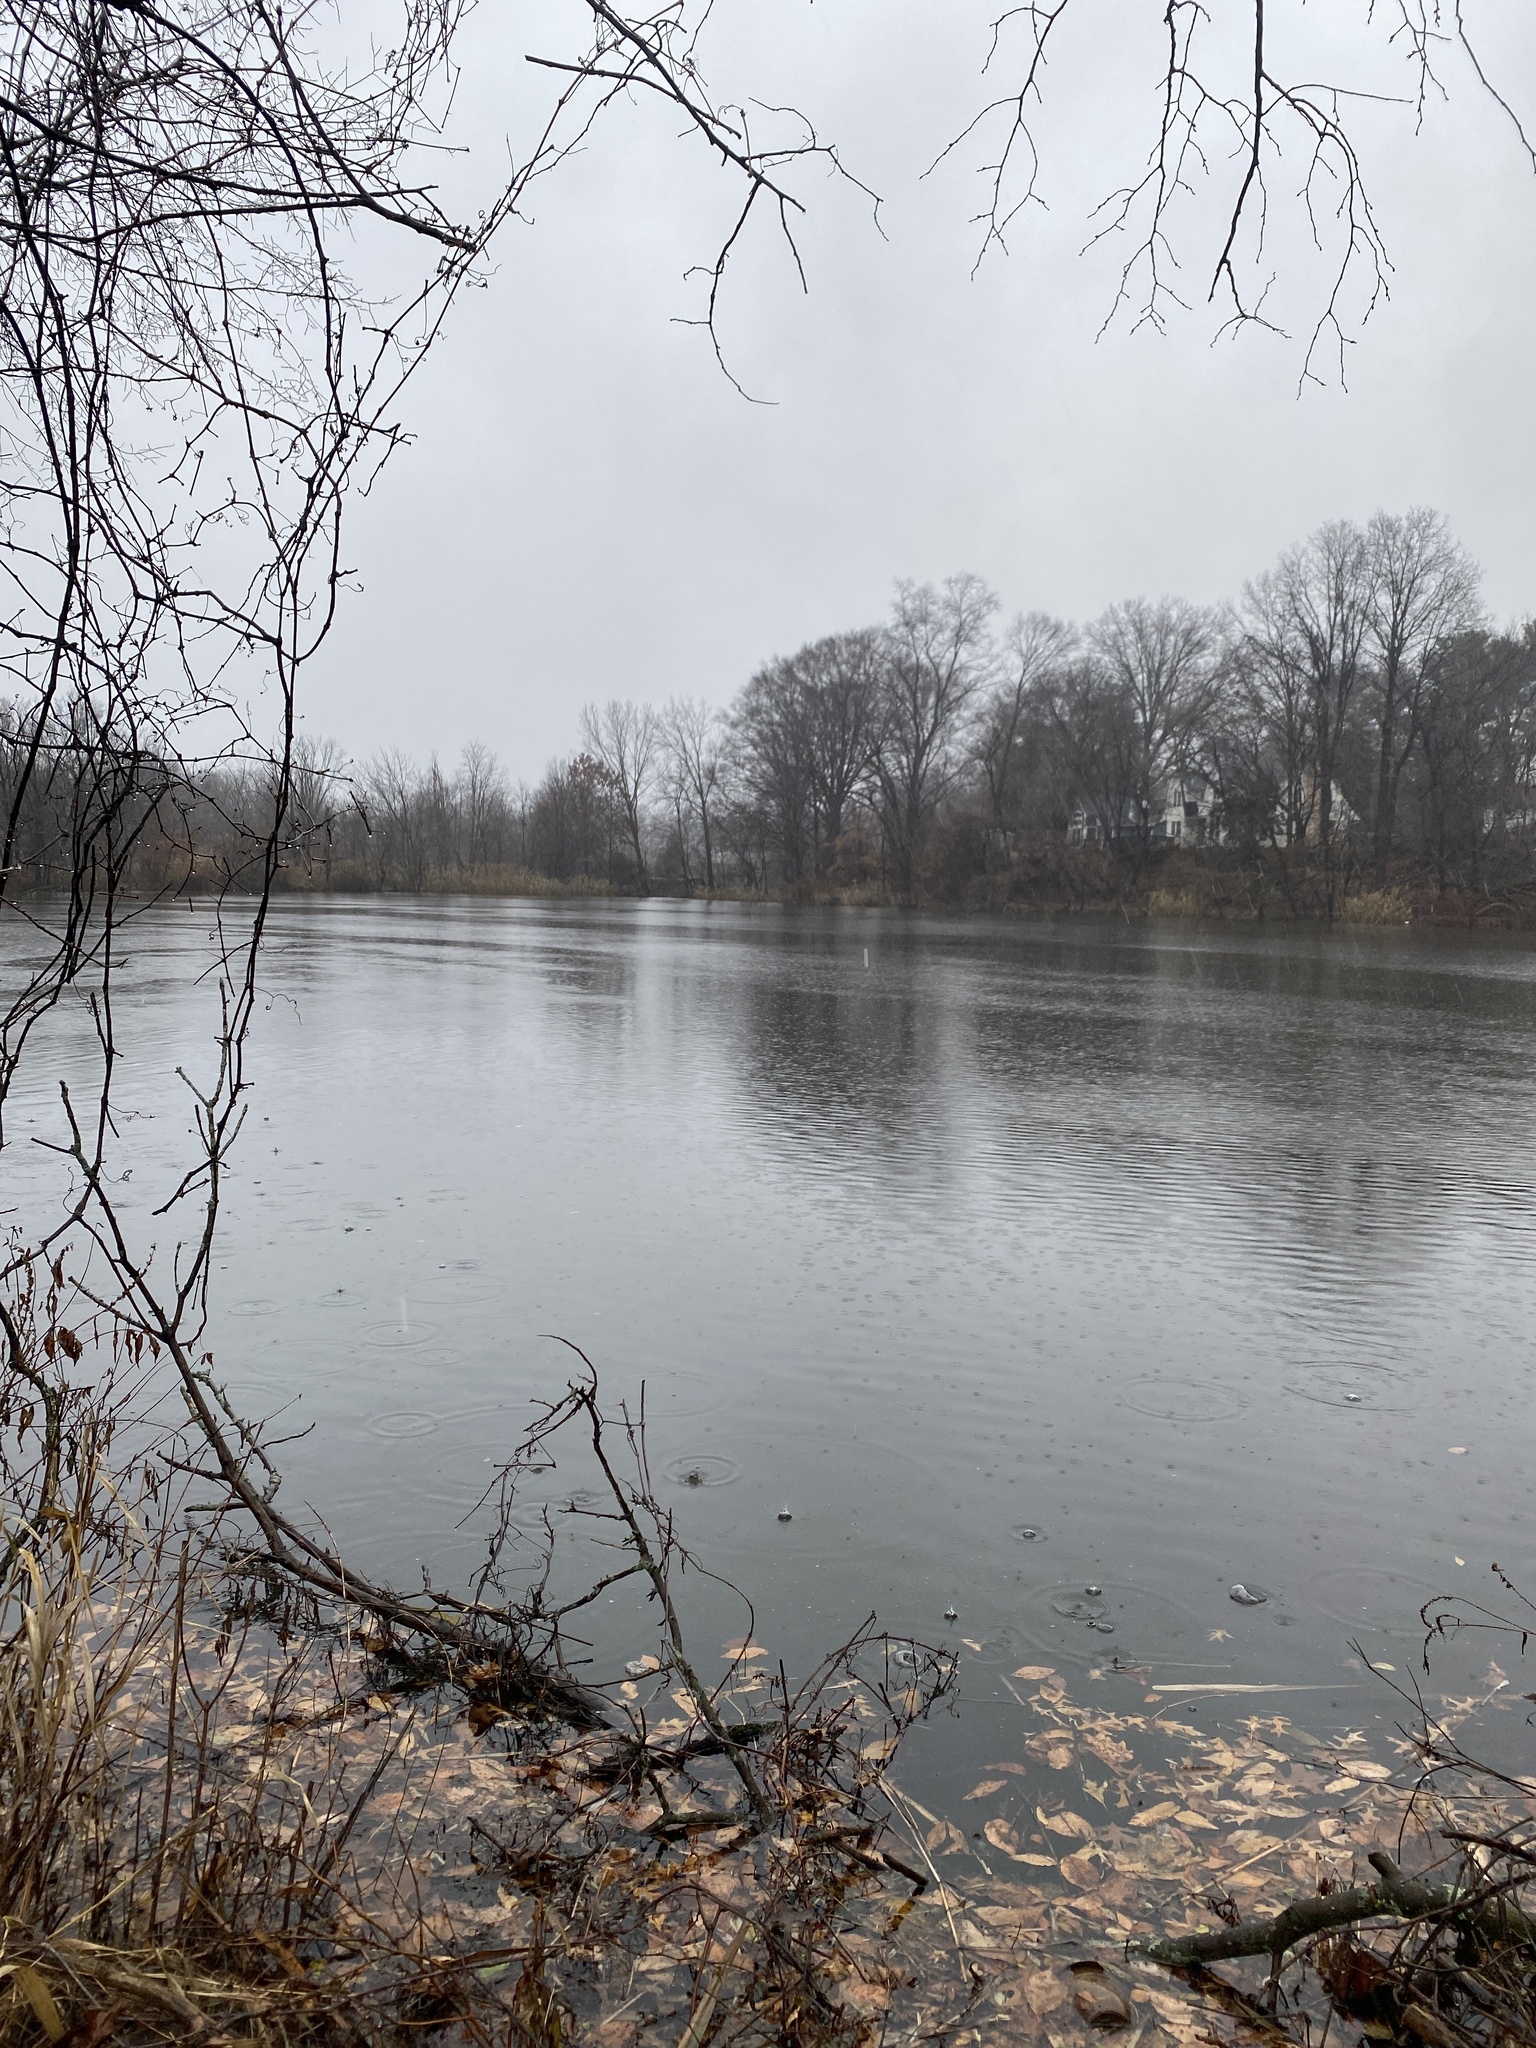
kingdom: Plantae
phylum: Tracheophyta
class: Magnoliopsida
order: Ranunculales
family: Ranunculaceae
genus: Clematis
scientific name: Clematis terniflora
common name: Sweet autumn clematis
